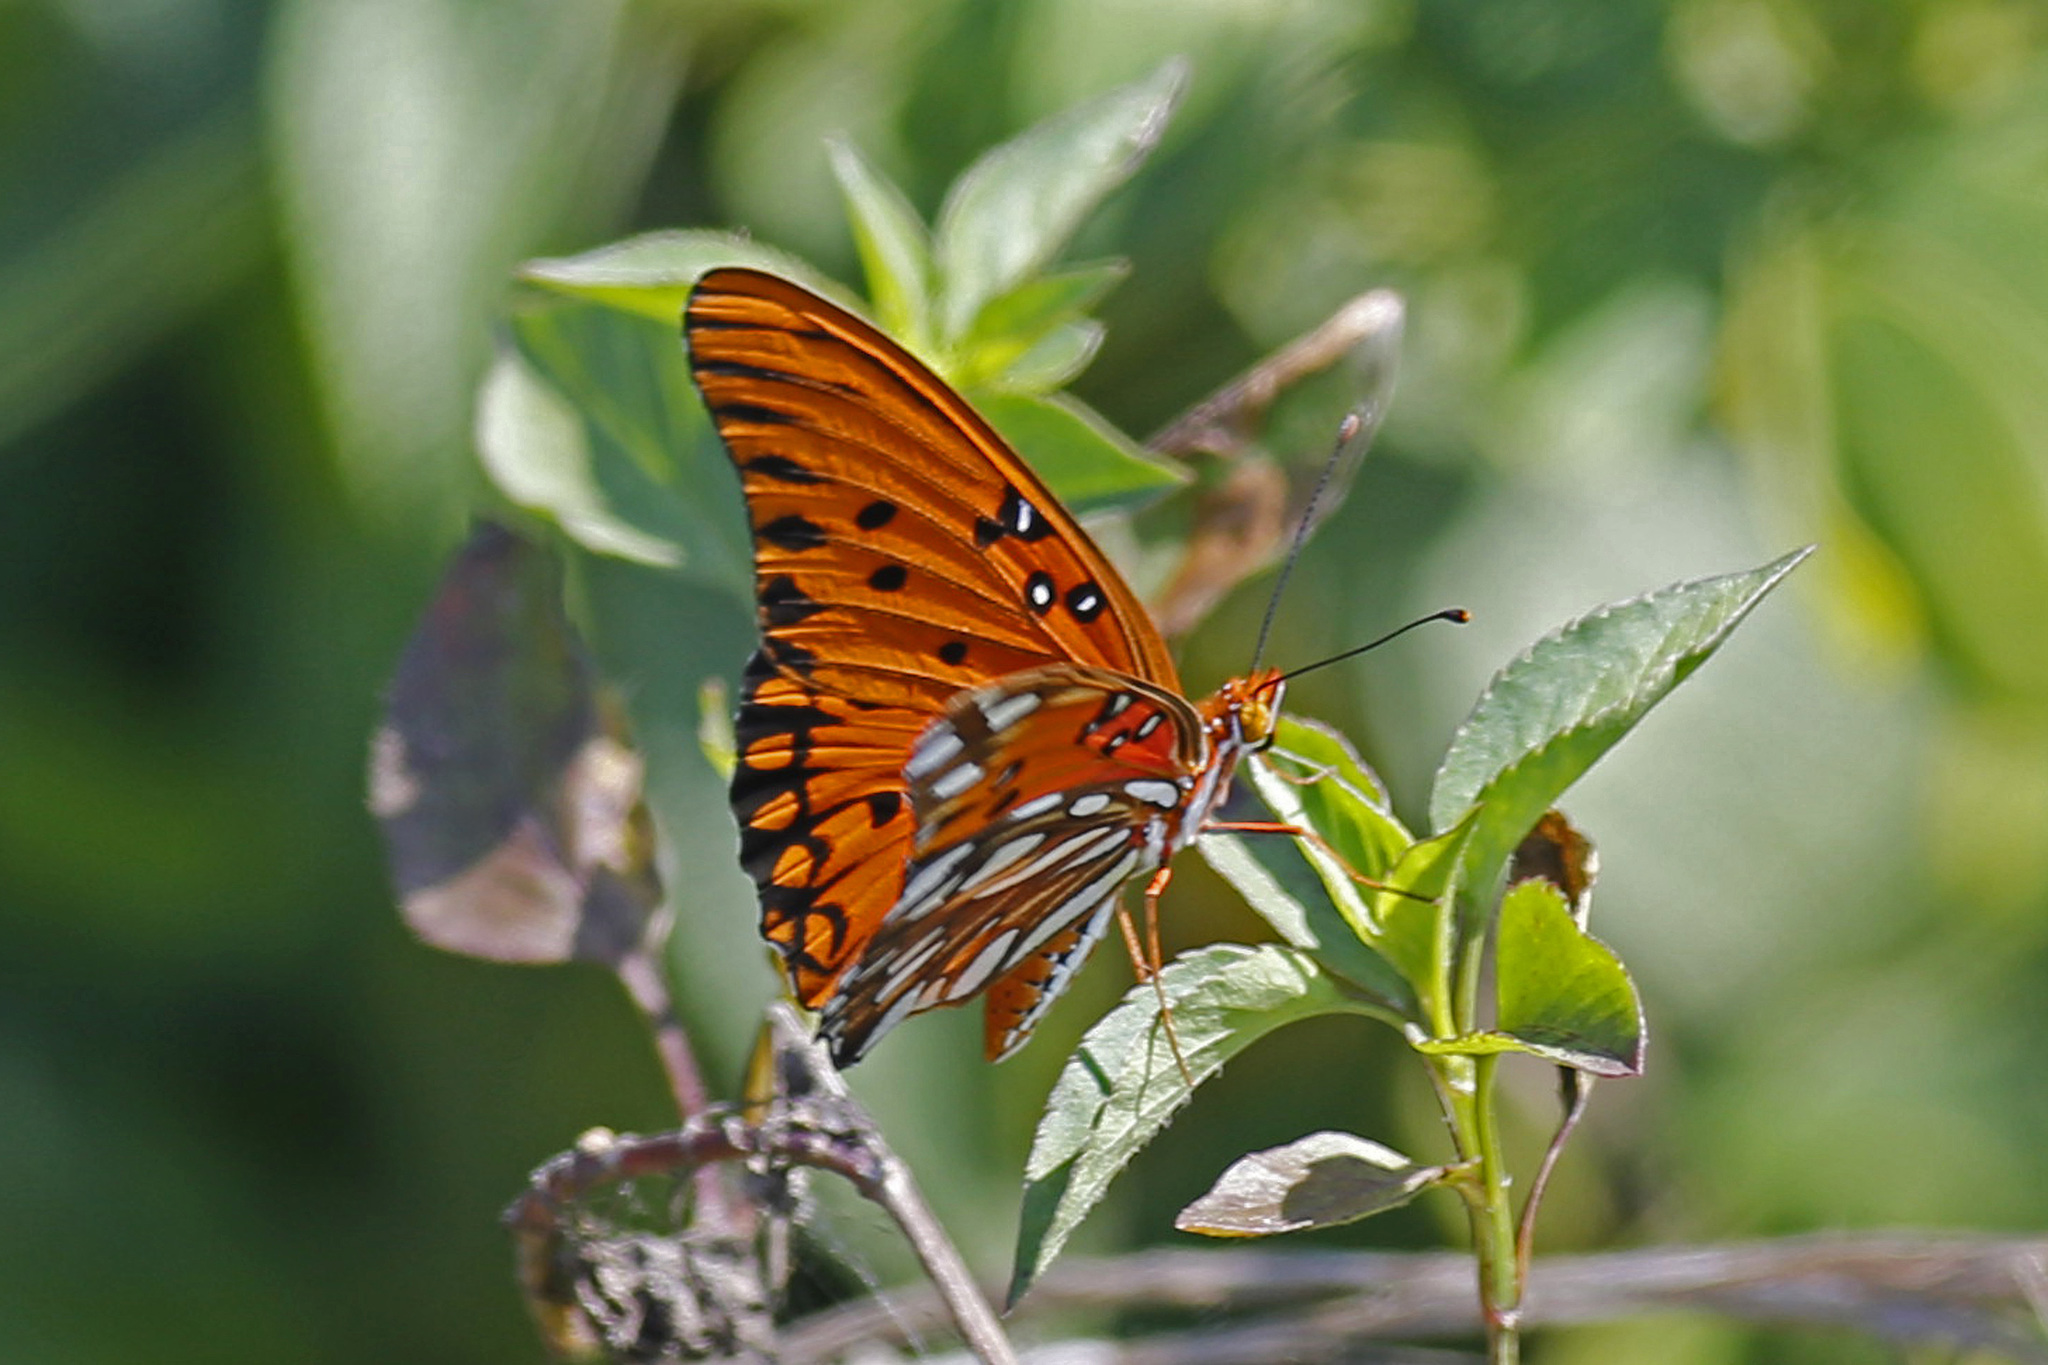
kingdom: Animalia
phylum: Arthropoda
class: Insecta
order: Lepidoptera
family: Nymphalidae
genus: Dione
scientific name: Dione vanillae
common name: Gulf fritillary
